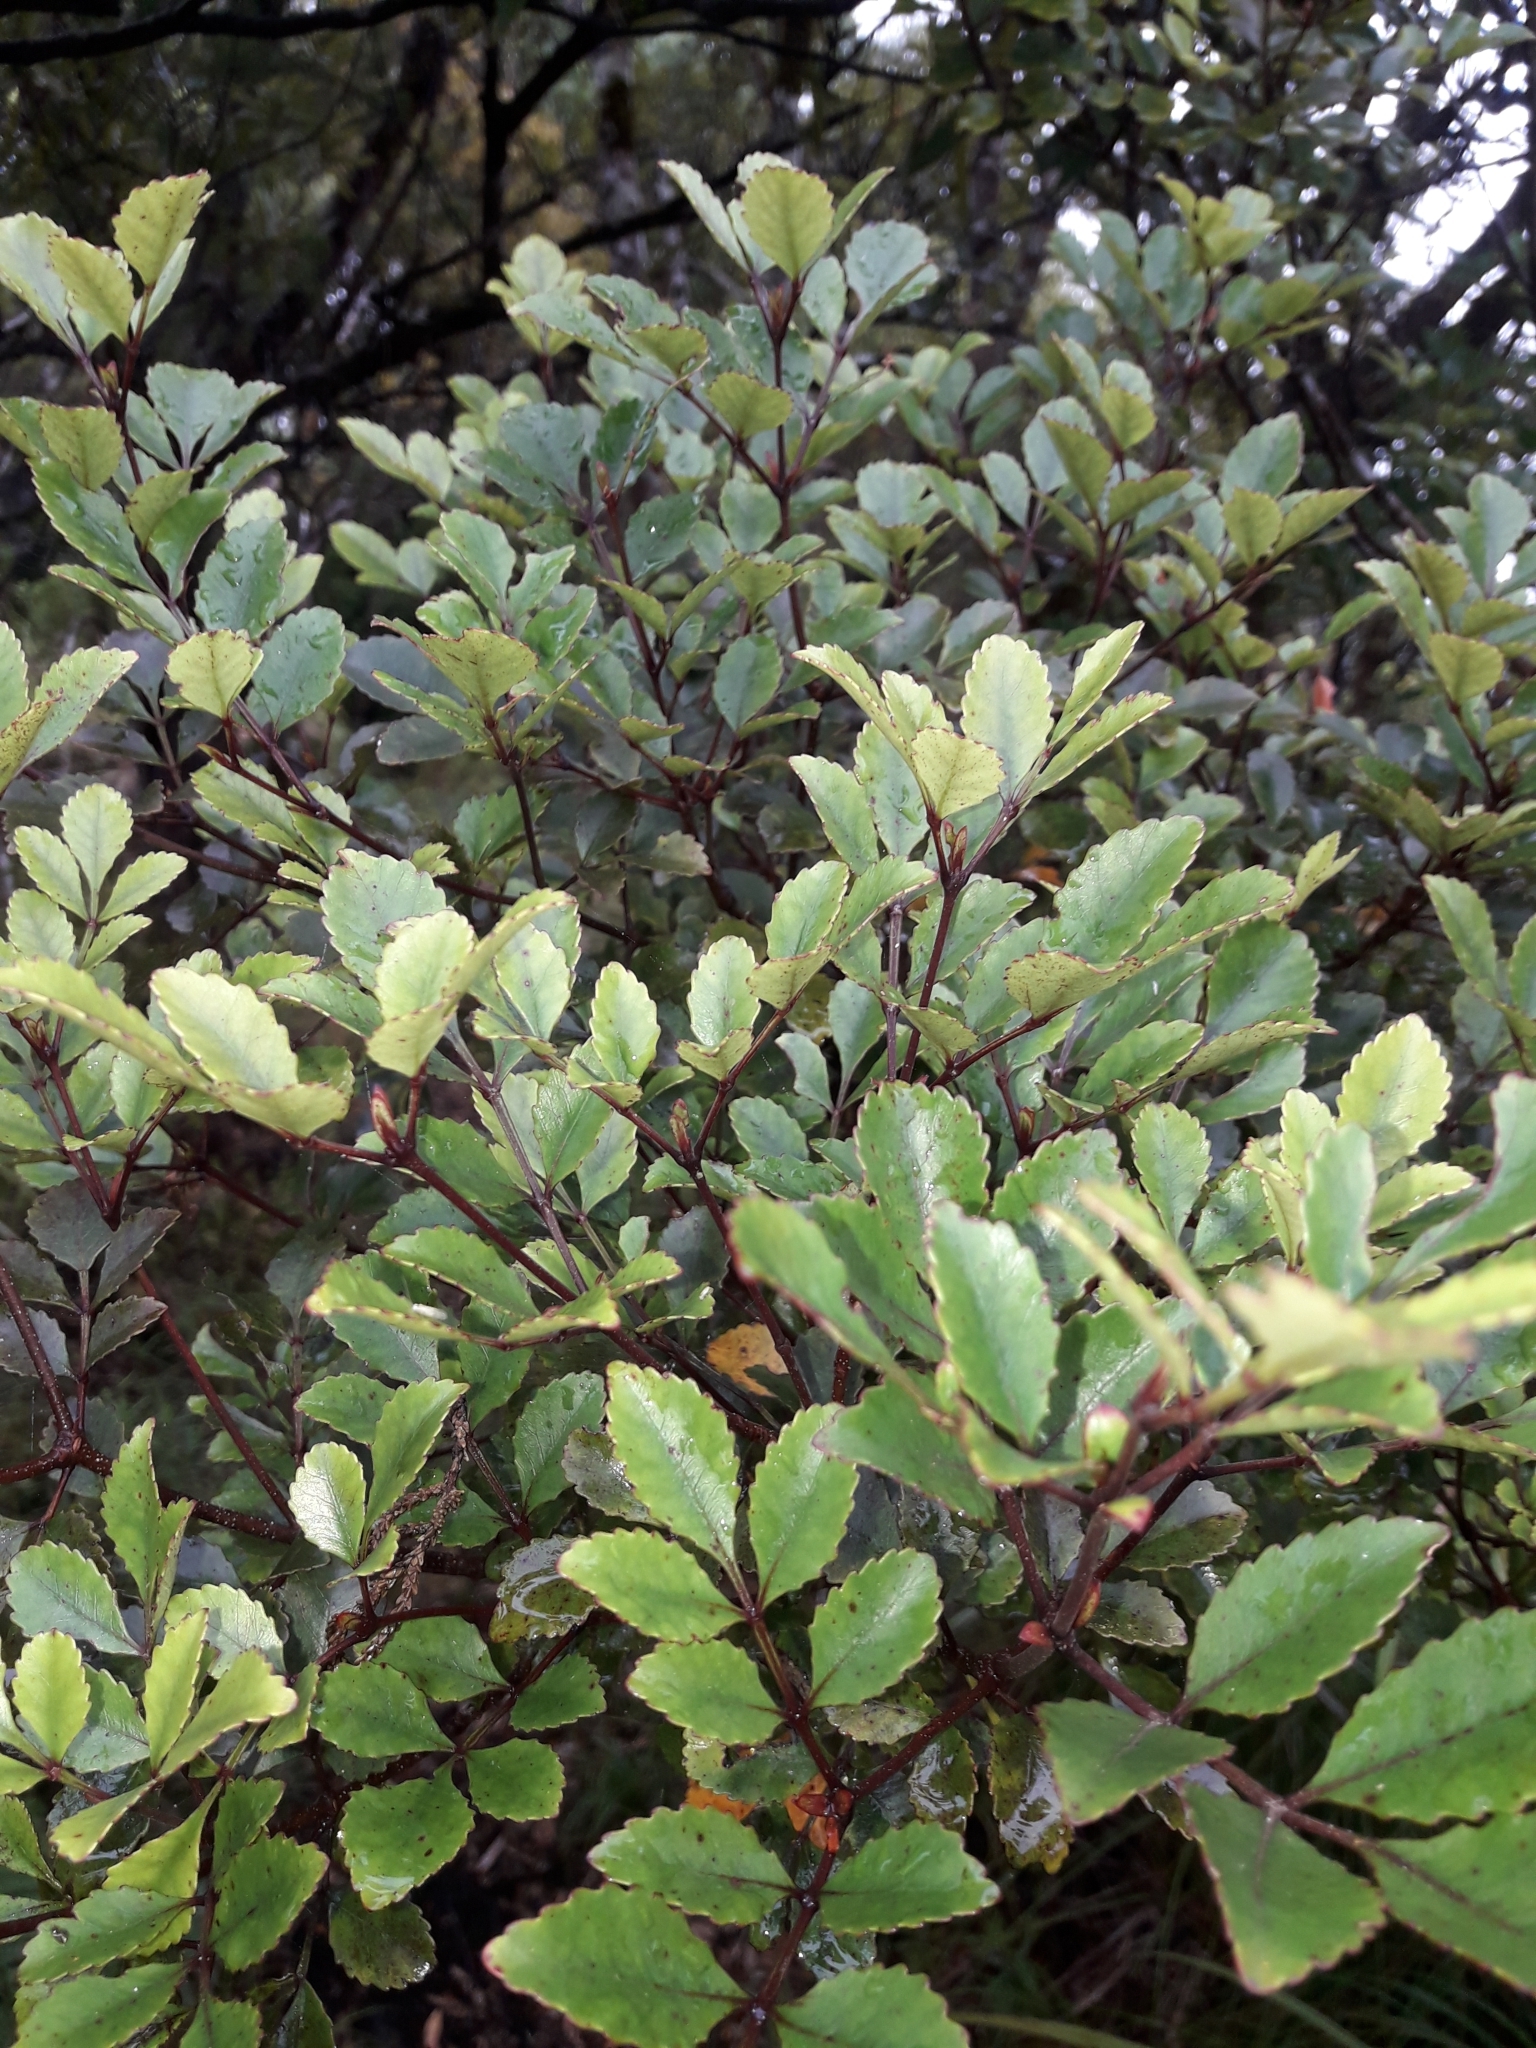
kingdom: Plantae
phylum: Tracheophyta
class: Magnoliopsida
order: Oxalidales
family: Cunoniaceae
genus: Pterophylla
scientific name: Pterophylla sylvicola
